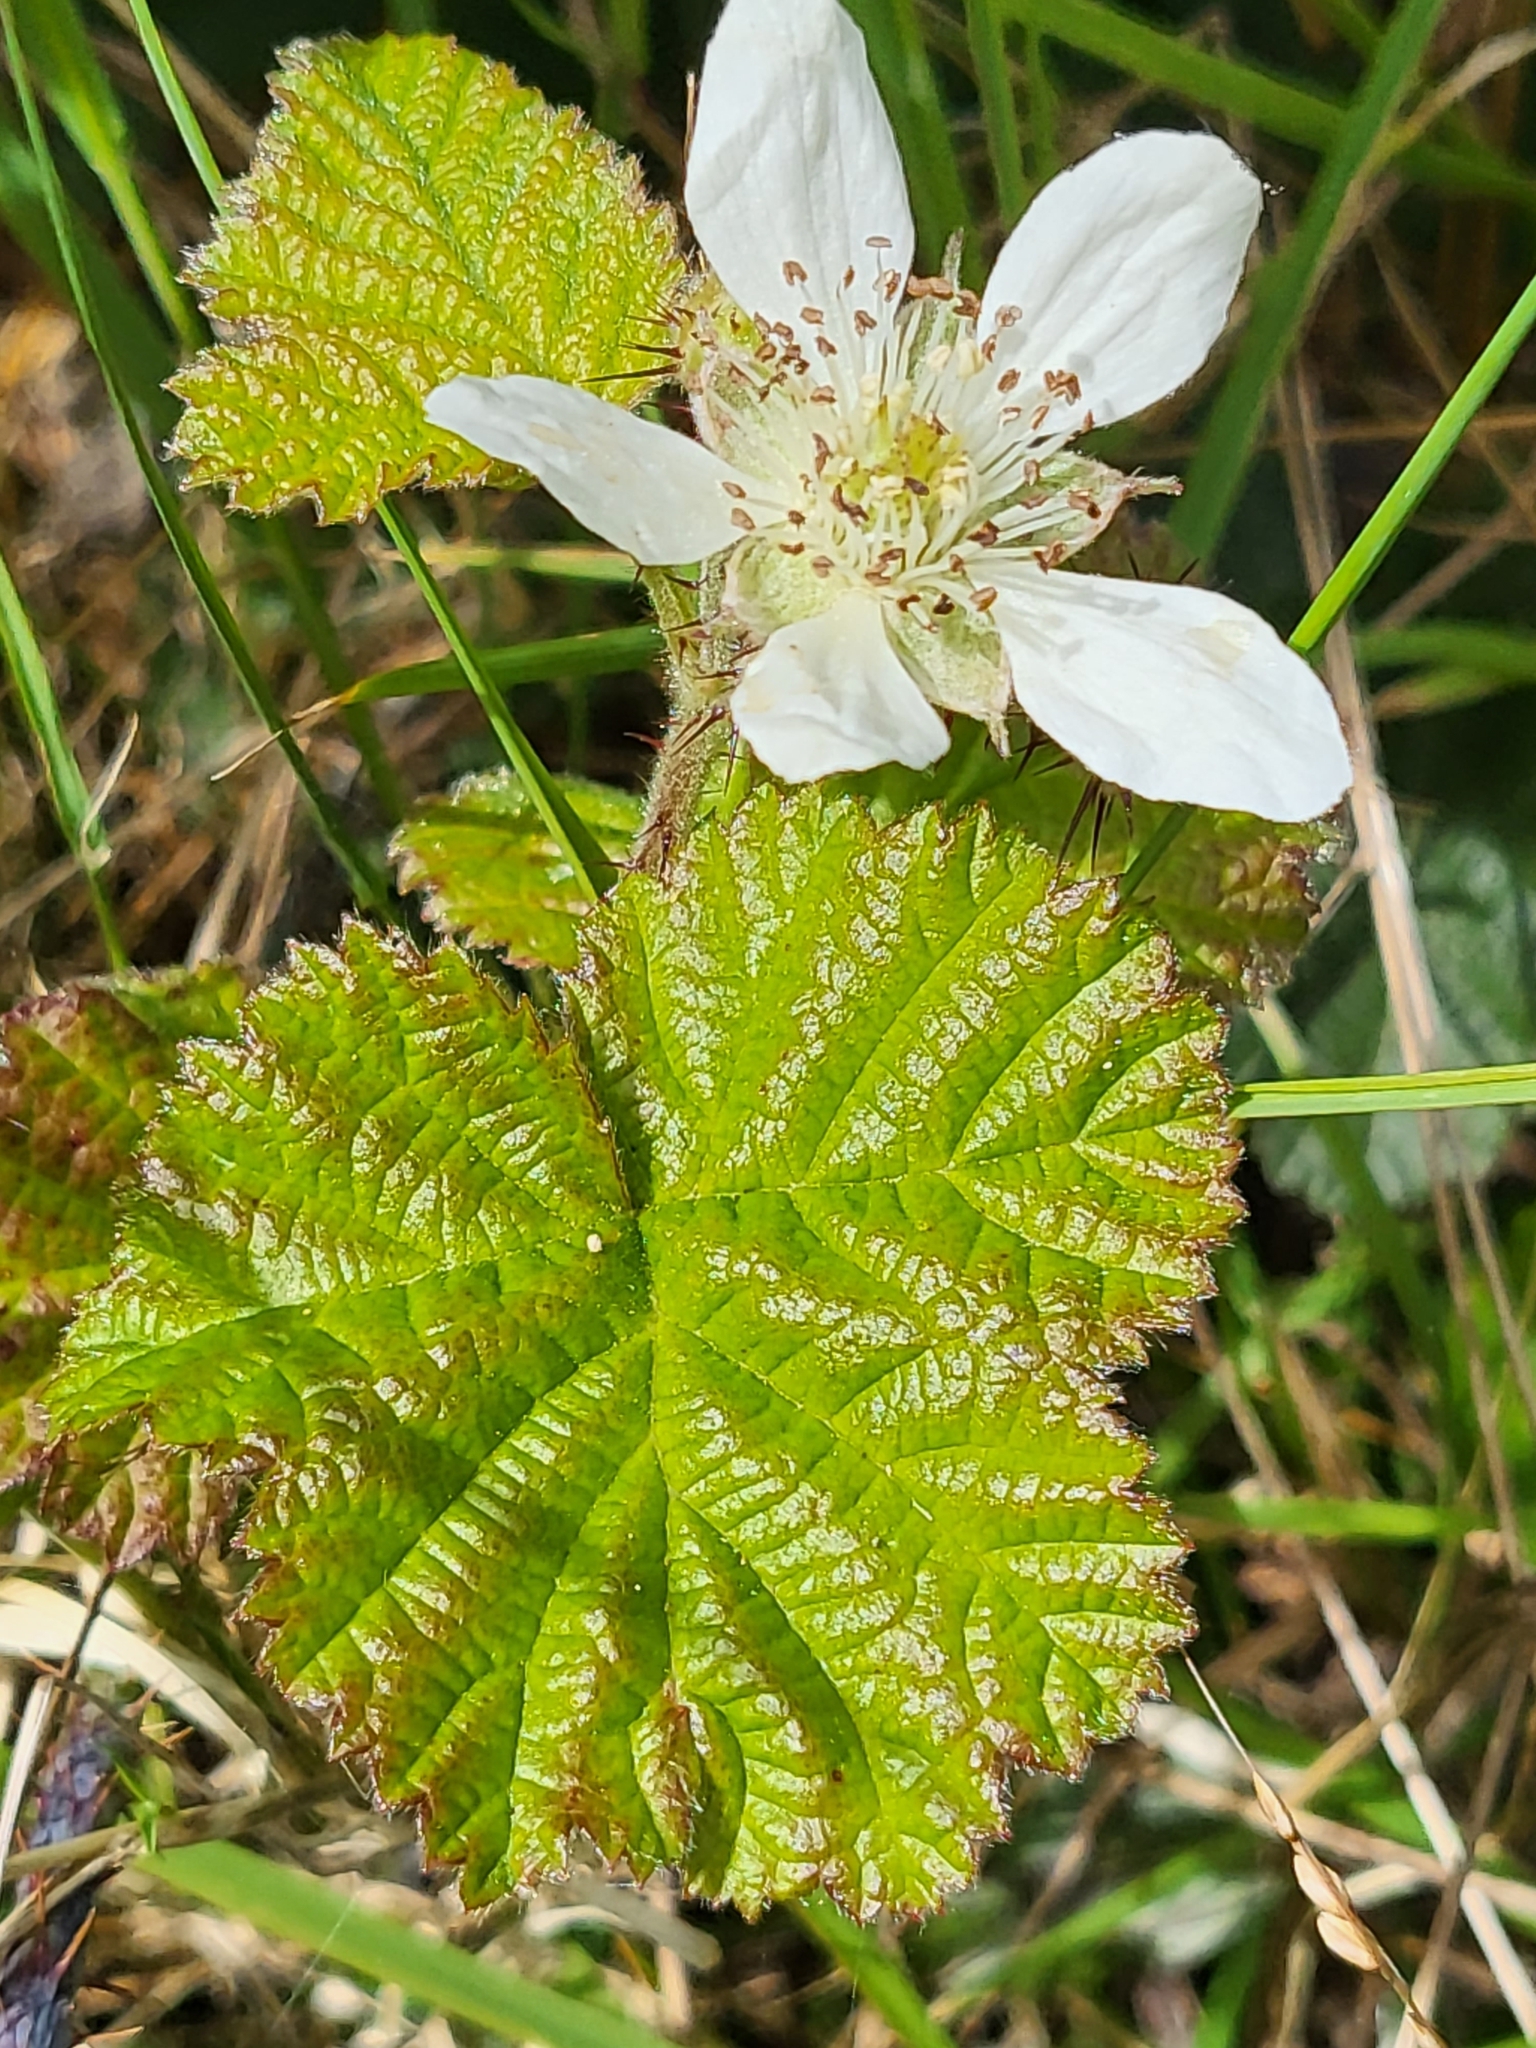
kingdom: Plantae
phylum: Tracheophyta
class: Magnoliopsida
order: Rosales
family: Rosaceae
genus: Rubus
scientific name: Rubus ursinus
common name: Pacific blackberry
